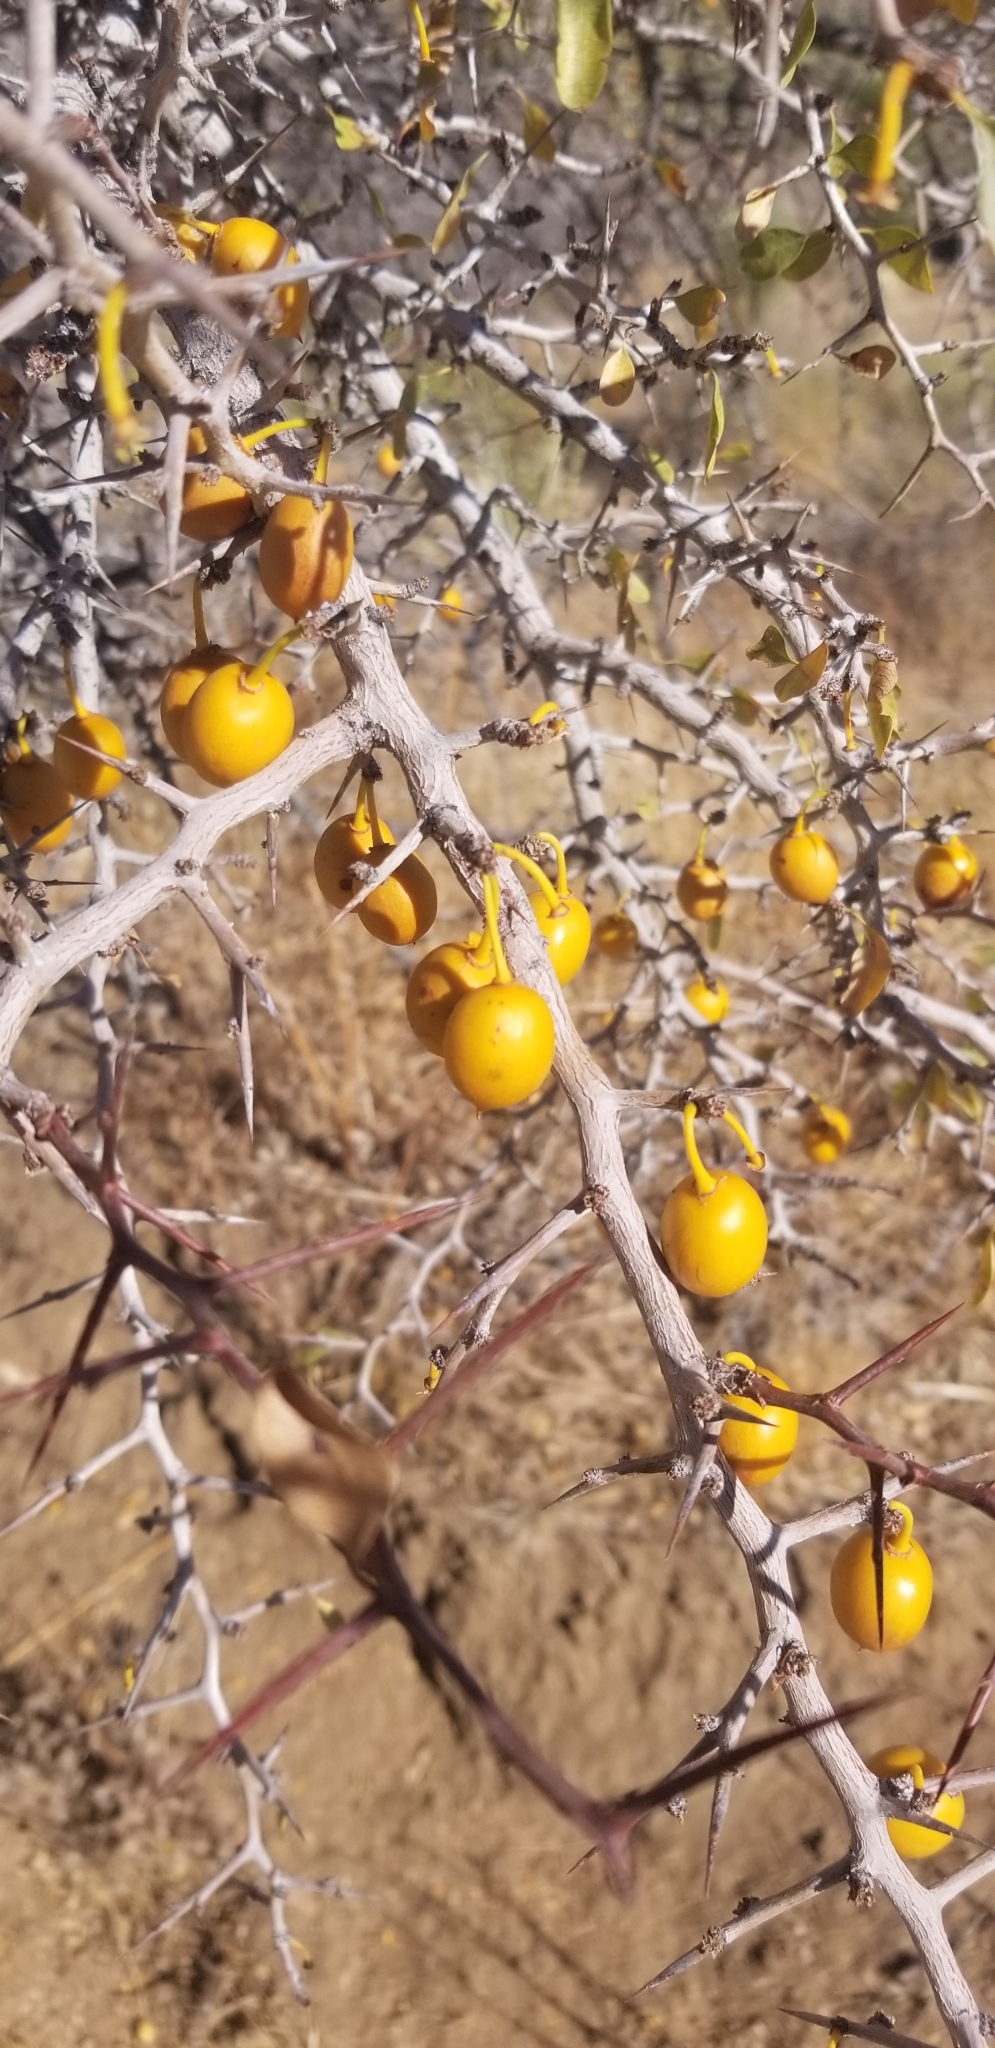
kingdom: Plantae
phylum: Tracheophyta
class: Magnoliopsida
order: Rosales
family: Rhamnaceae
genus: Pseudoziziphus
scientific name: Pseudoziziphus parryi
